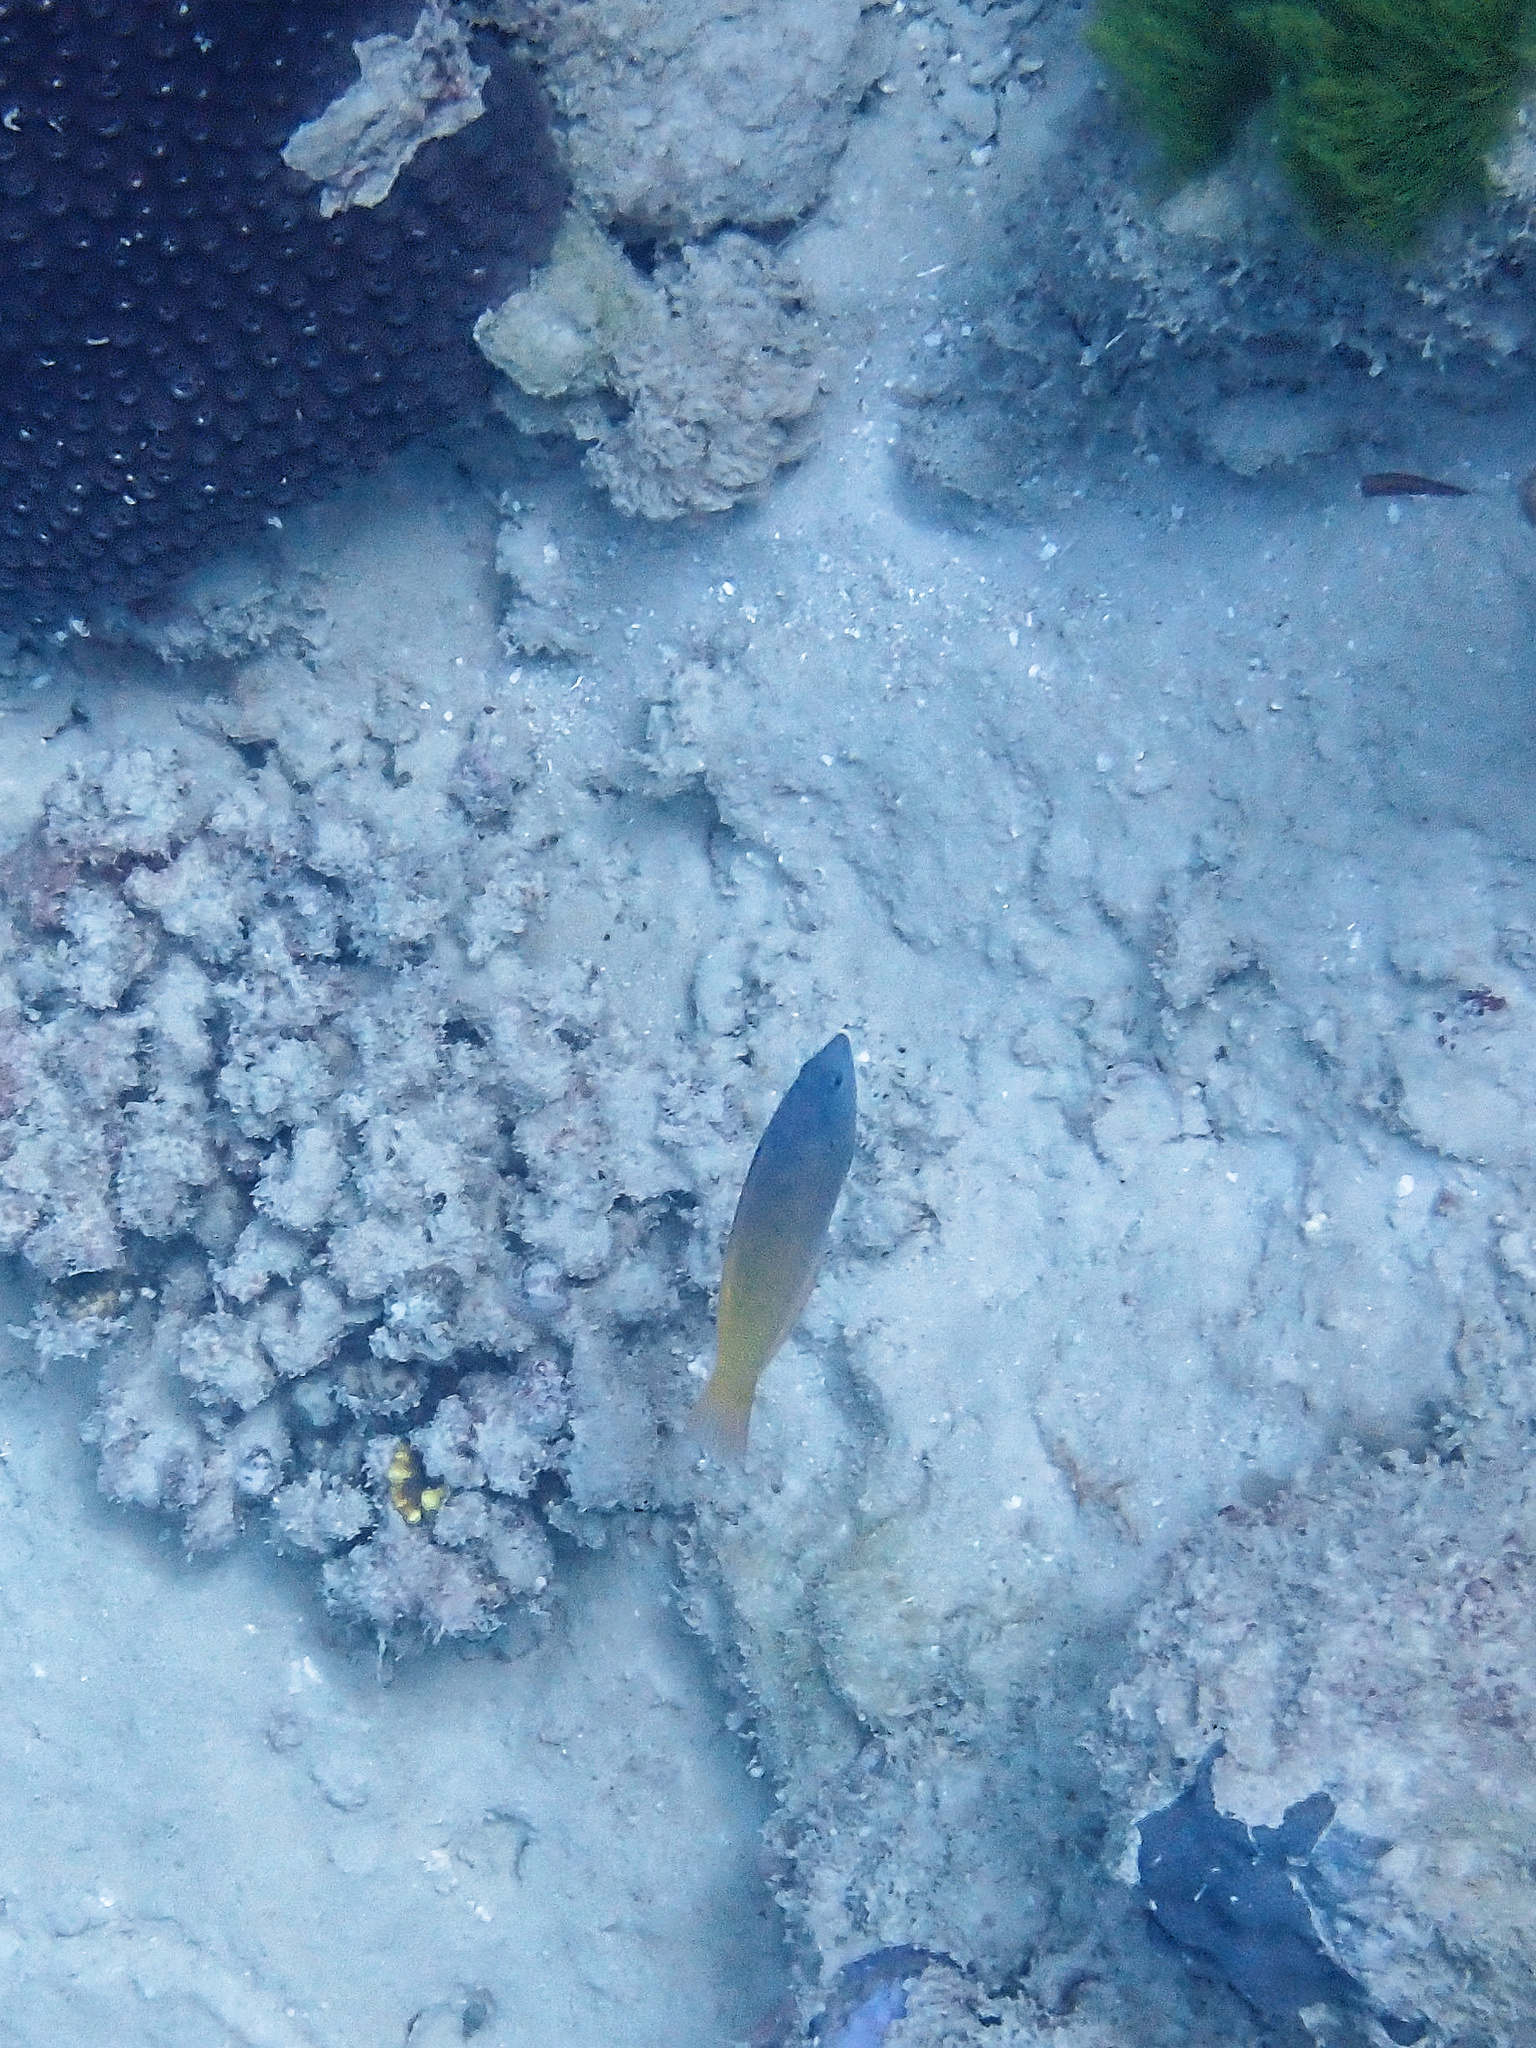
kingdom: Animalia
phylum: Chordata
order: Perciformes
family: Labridae
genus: Halichoeres
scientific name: Halichoeres prosopeion
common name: Half-grey wrasse
